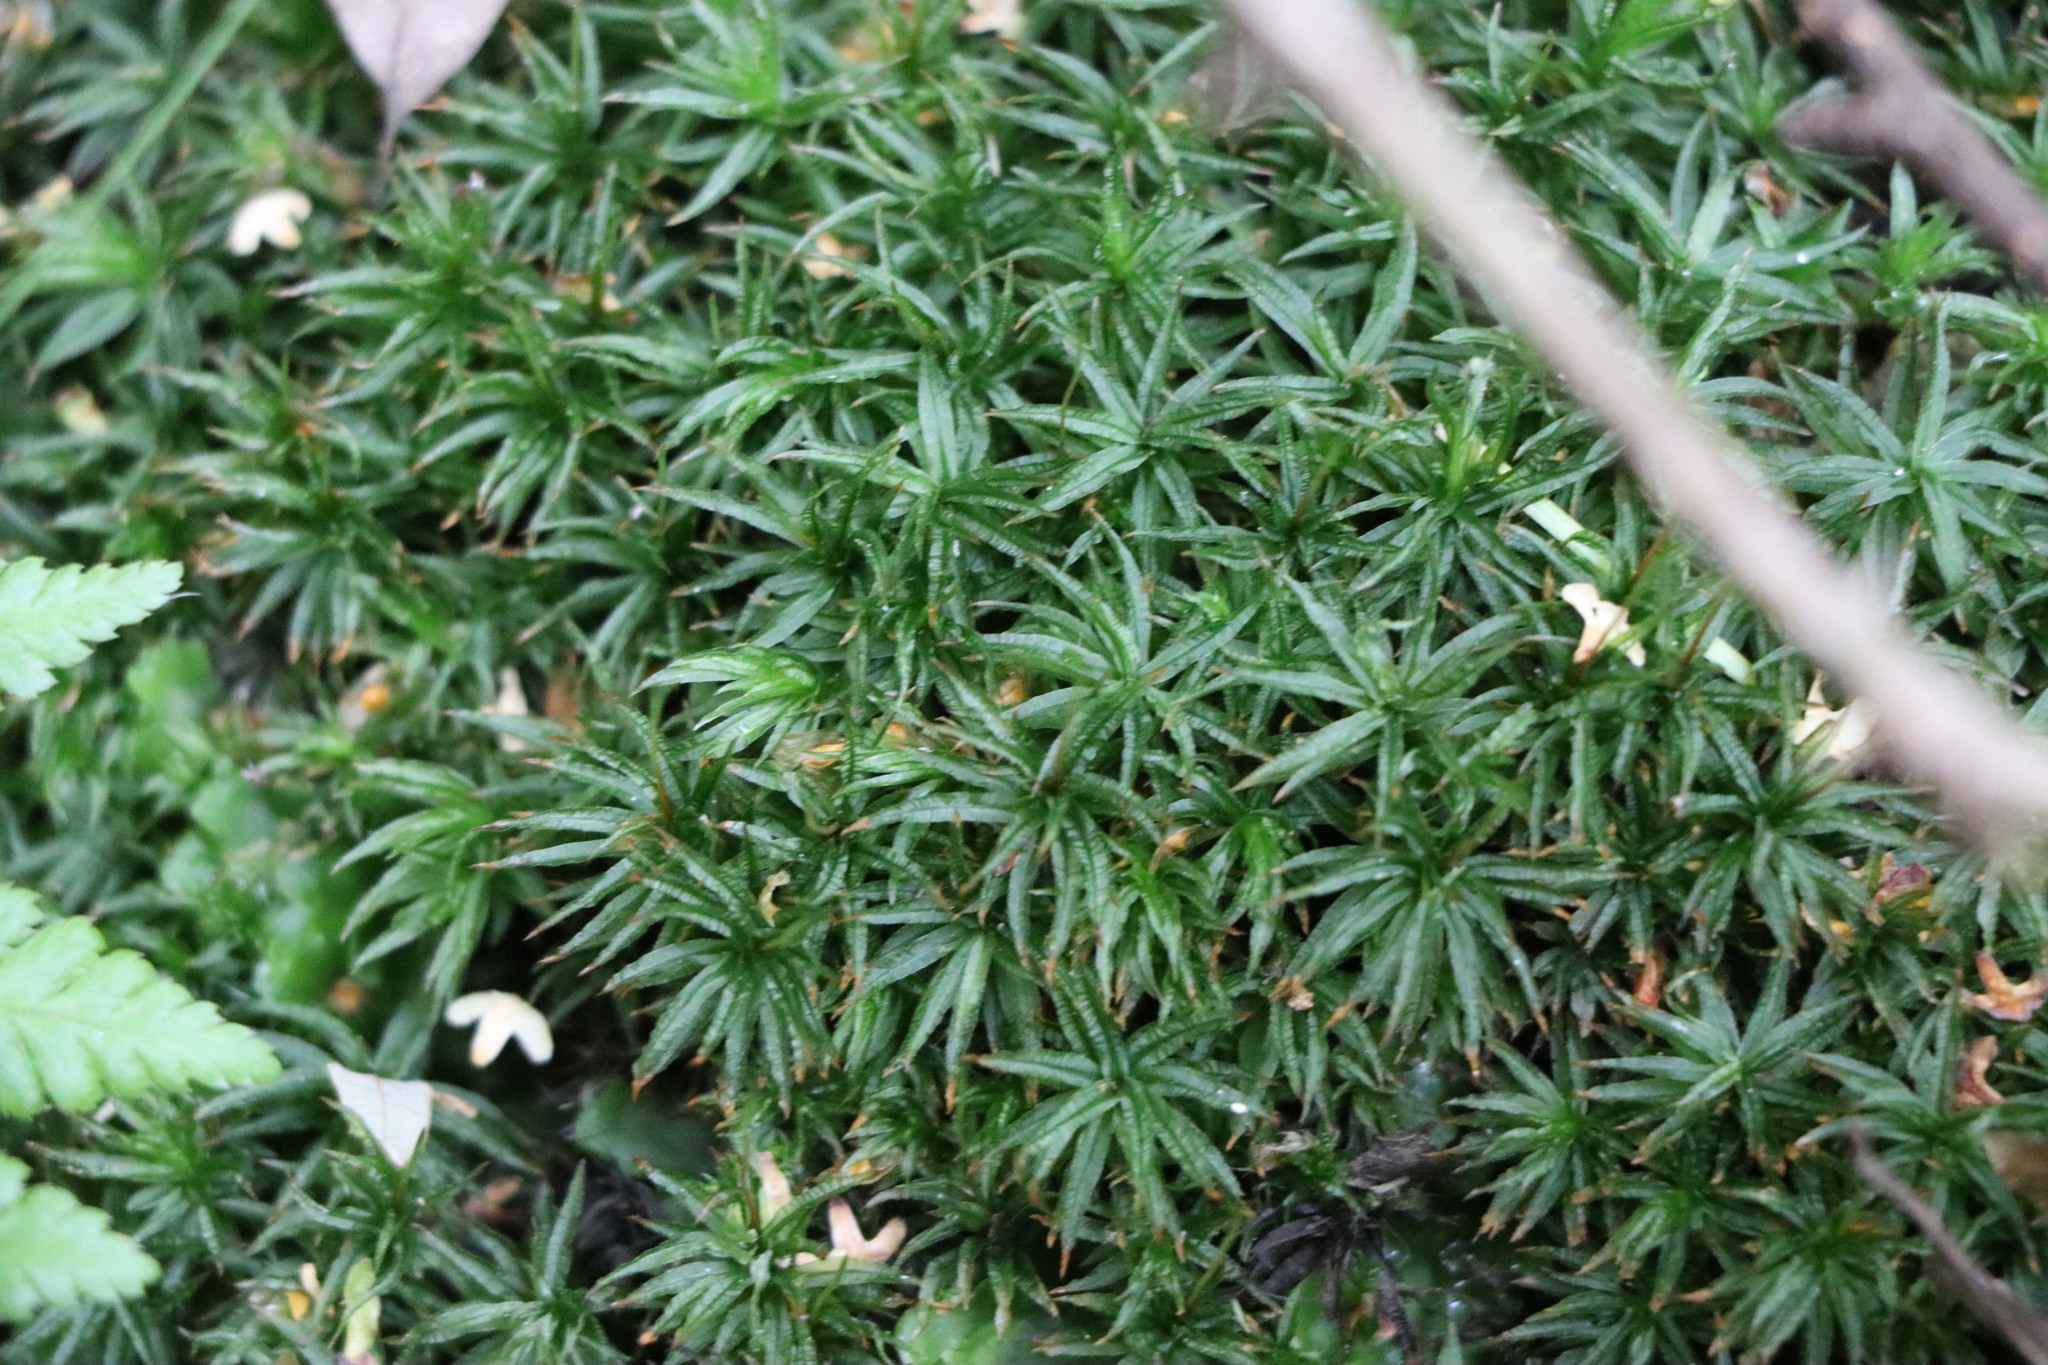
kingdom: Plantae
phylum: Bryophyta
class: Polytrichopsida
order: Polytrichales
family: Polytrichaceae
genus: Atrichum
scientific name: Atrichum undulatum
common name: Common smoothcap
